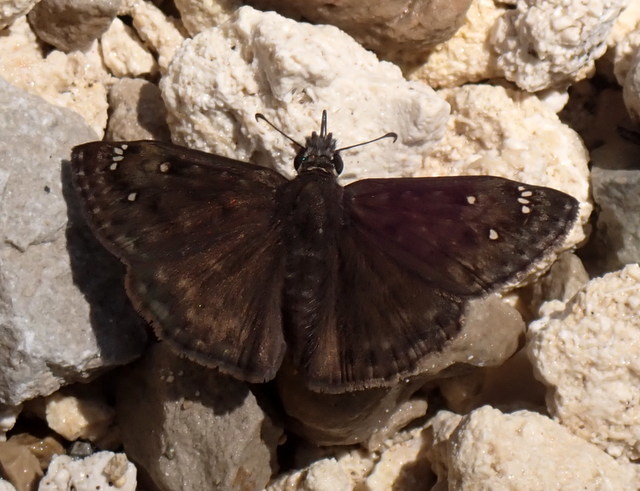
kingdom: Animalia
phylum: Arthropoda
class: Insecta
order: Lepidoptera
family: Hesperiidae
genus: Erynnis
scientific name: Erynnis horatius
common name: Horace's duskywing
